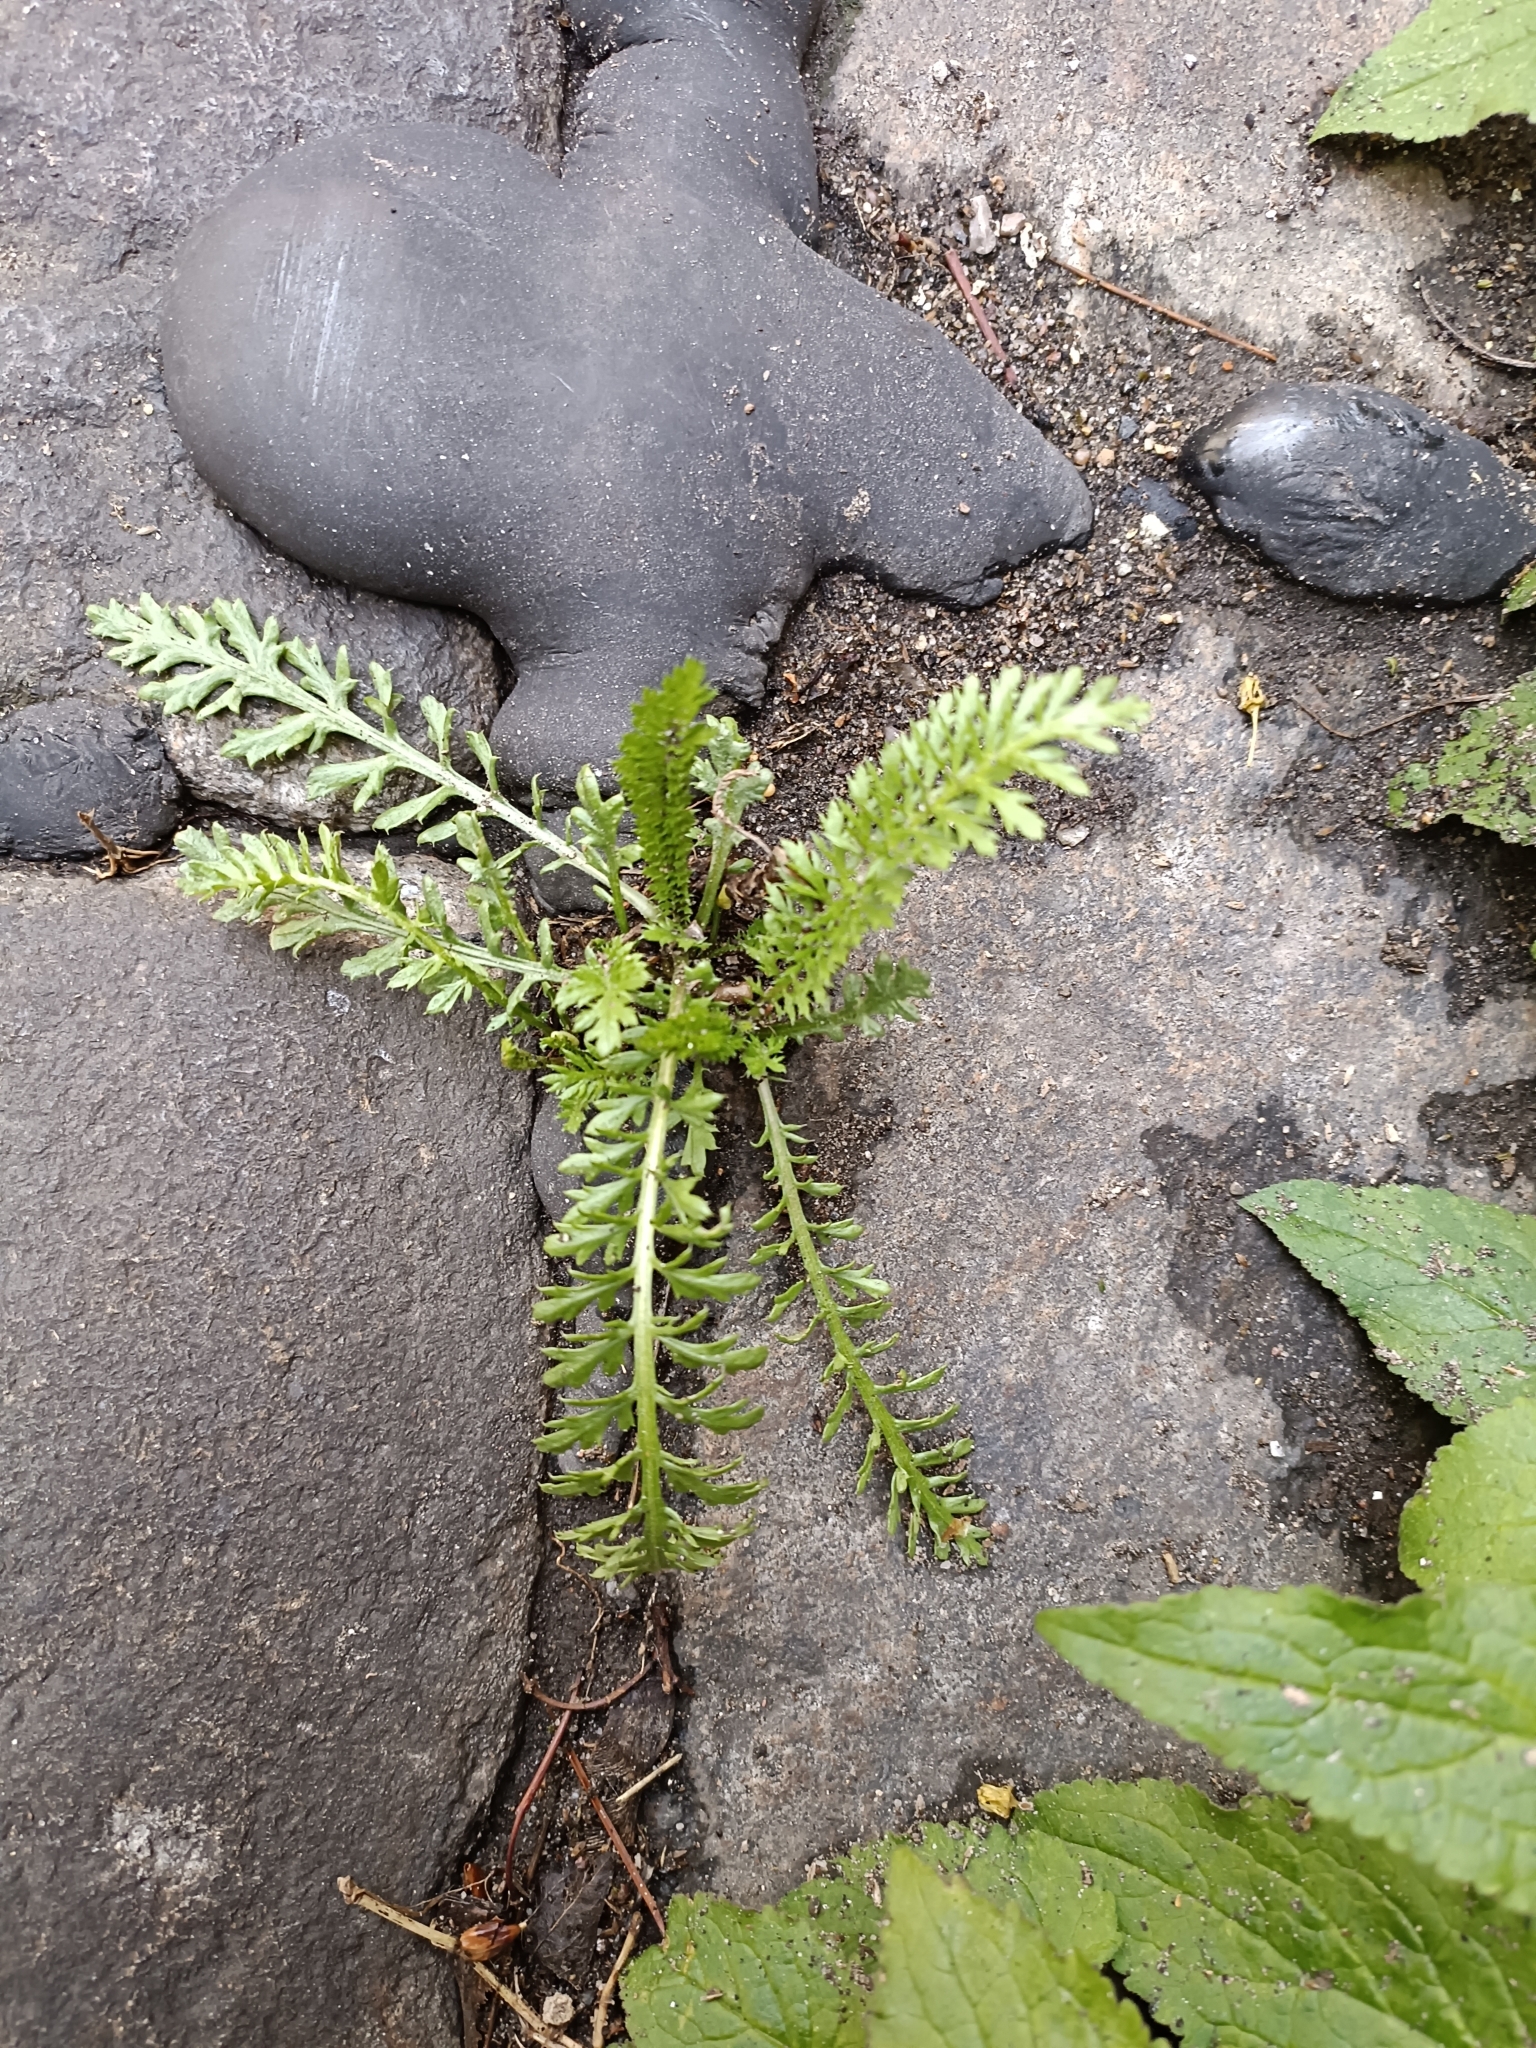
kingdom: Plantae
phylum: Tracheophyta
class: Magnoliopsida
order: Asterales
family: Asteraceae
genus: Achillea
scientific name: Achillea millefolium
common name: Yarrow
